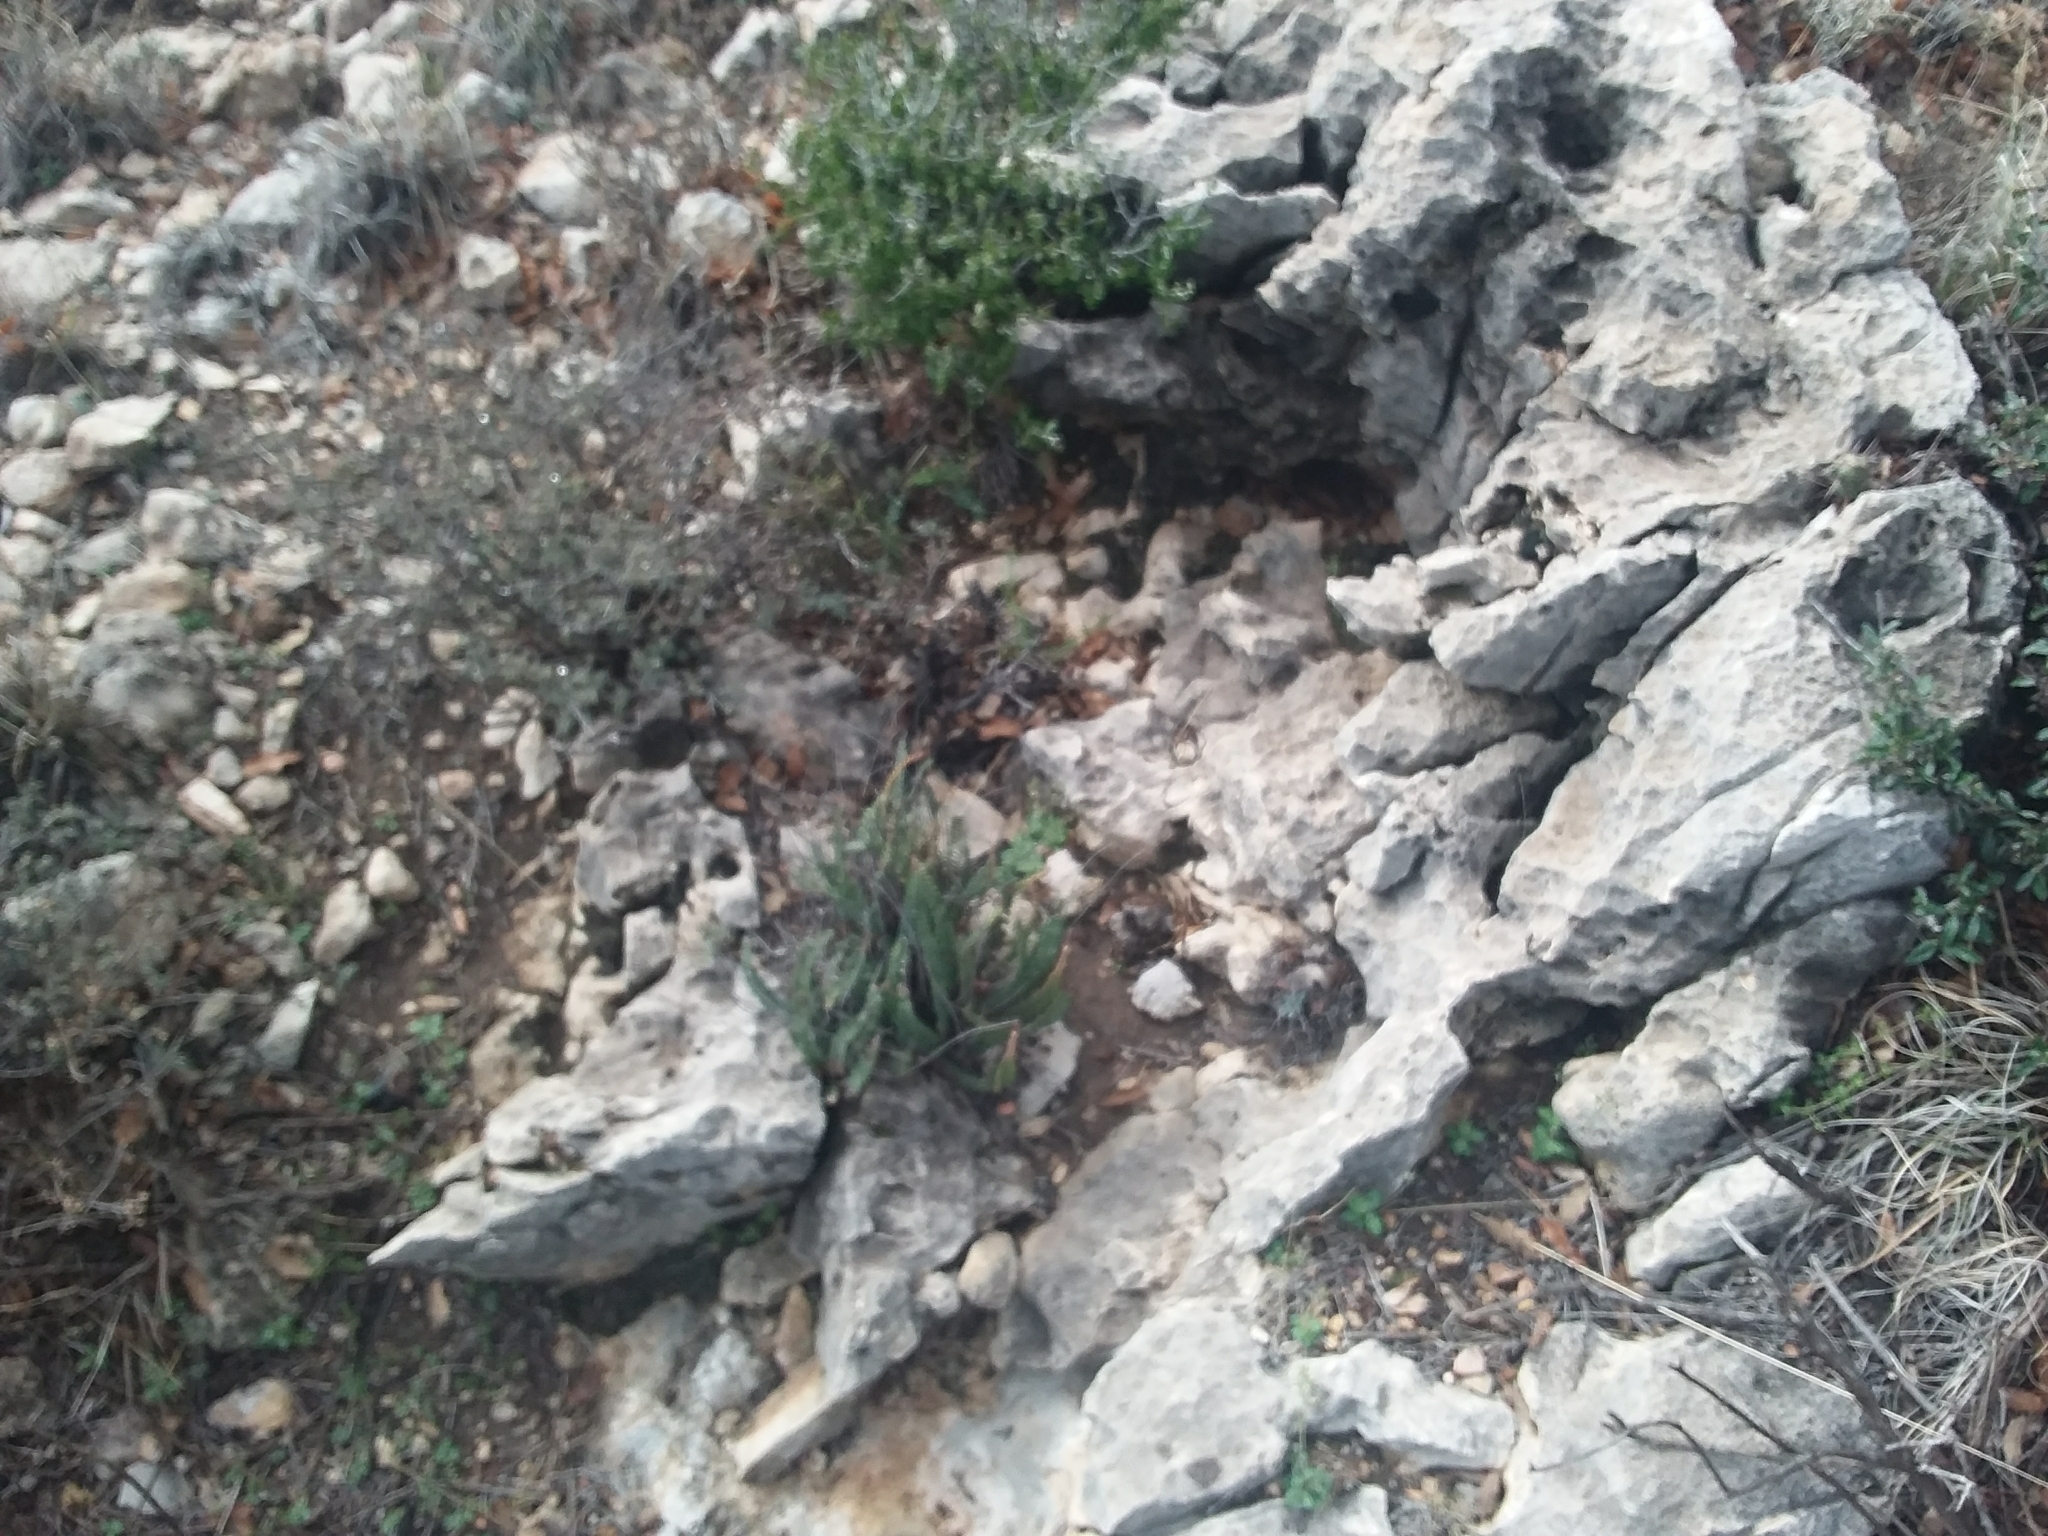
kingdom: Plantae
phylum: Tracheophyta
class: Polypodiopsida
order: Polypodiales
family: Pteridaceae
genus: Astrolepis
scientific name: Astrolepis cochisensis
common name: Scaly cloak fern
